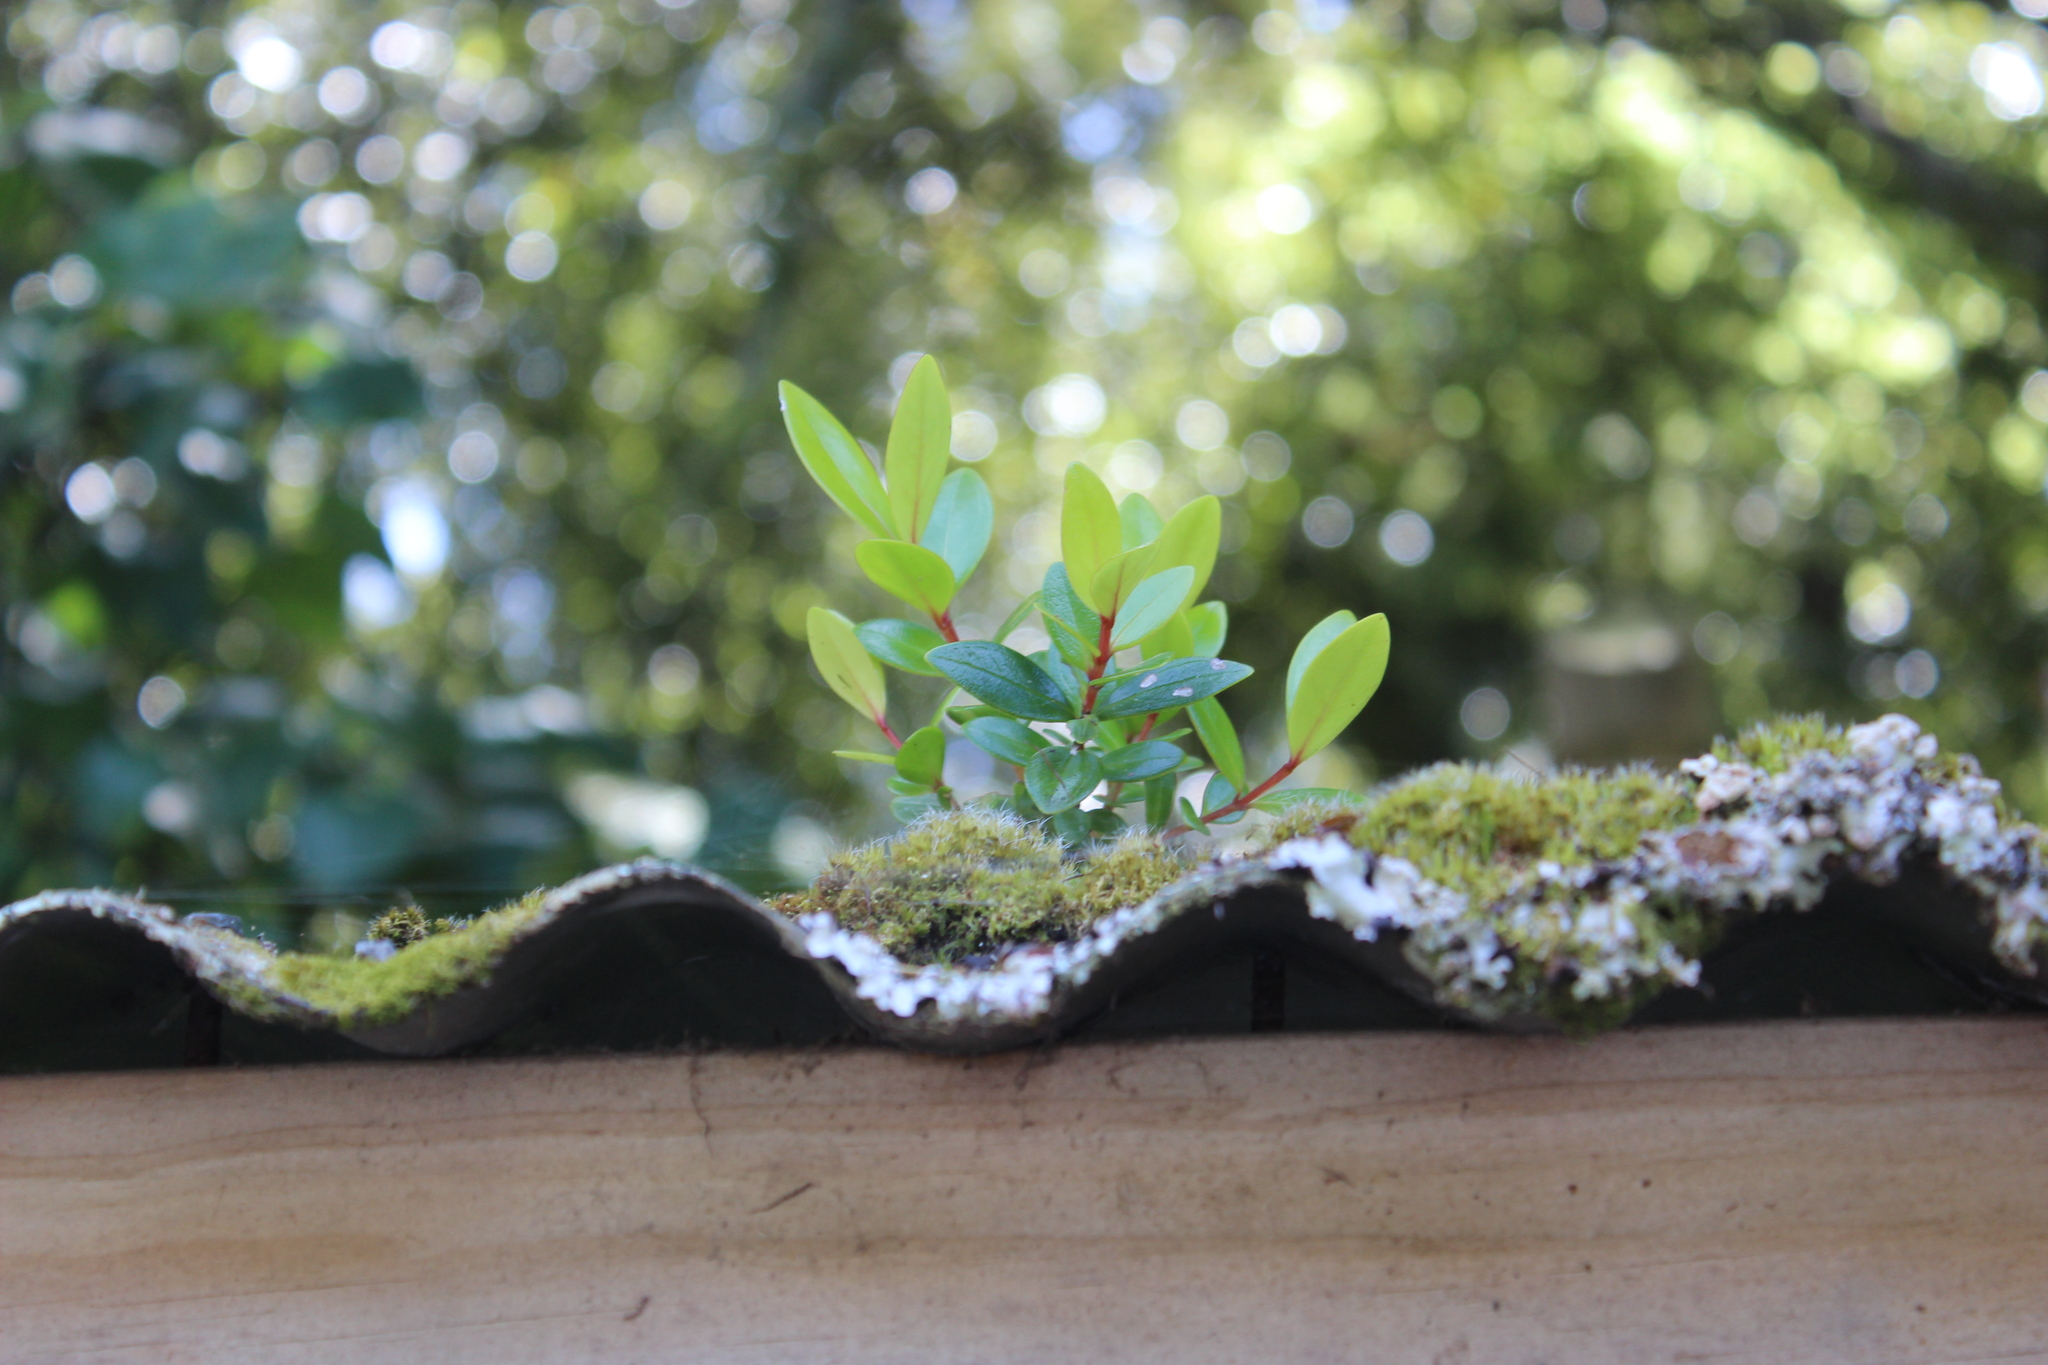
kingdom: Plantae
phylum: Tracheophyta
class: Magnoliopsida
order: Myrtales
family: Myrtaceae
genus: Metrosideros
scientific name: Metrosideros robusta
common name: Northern rata
